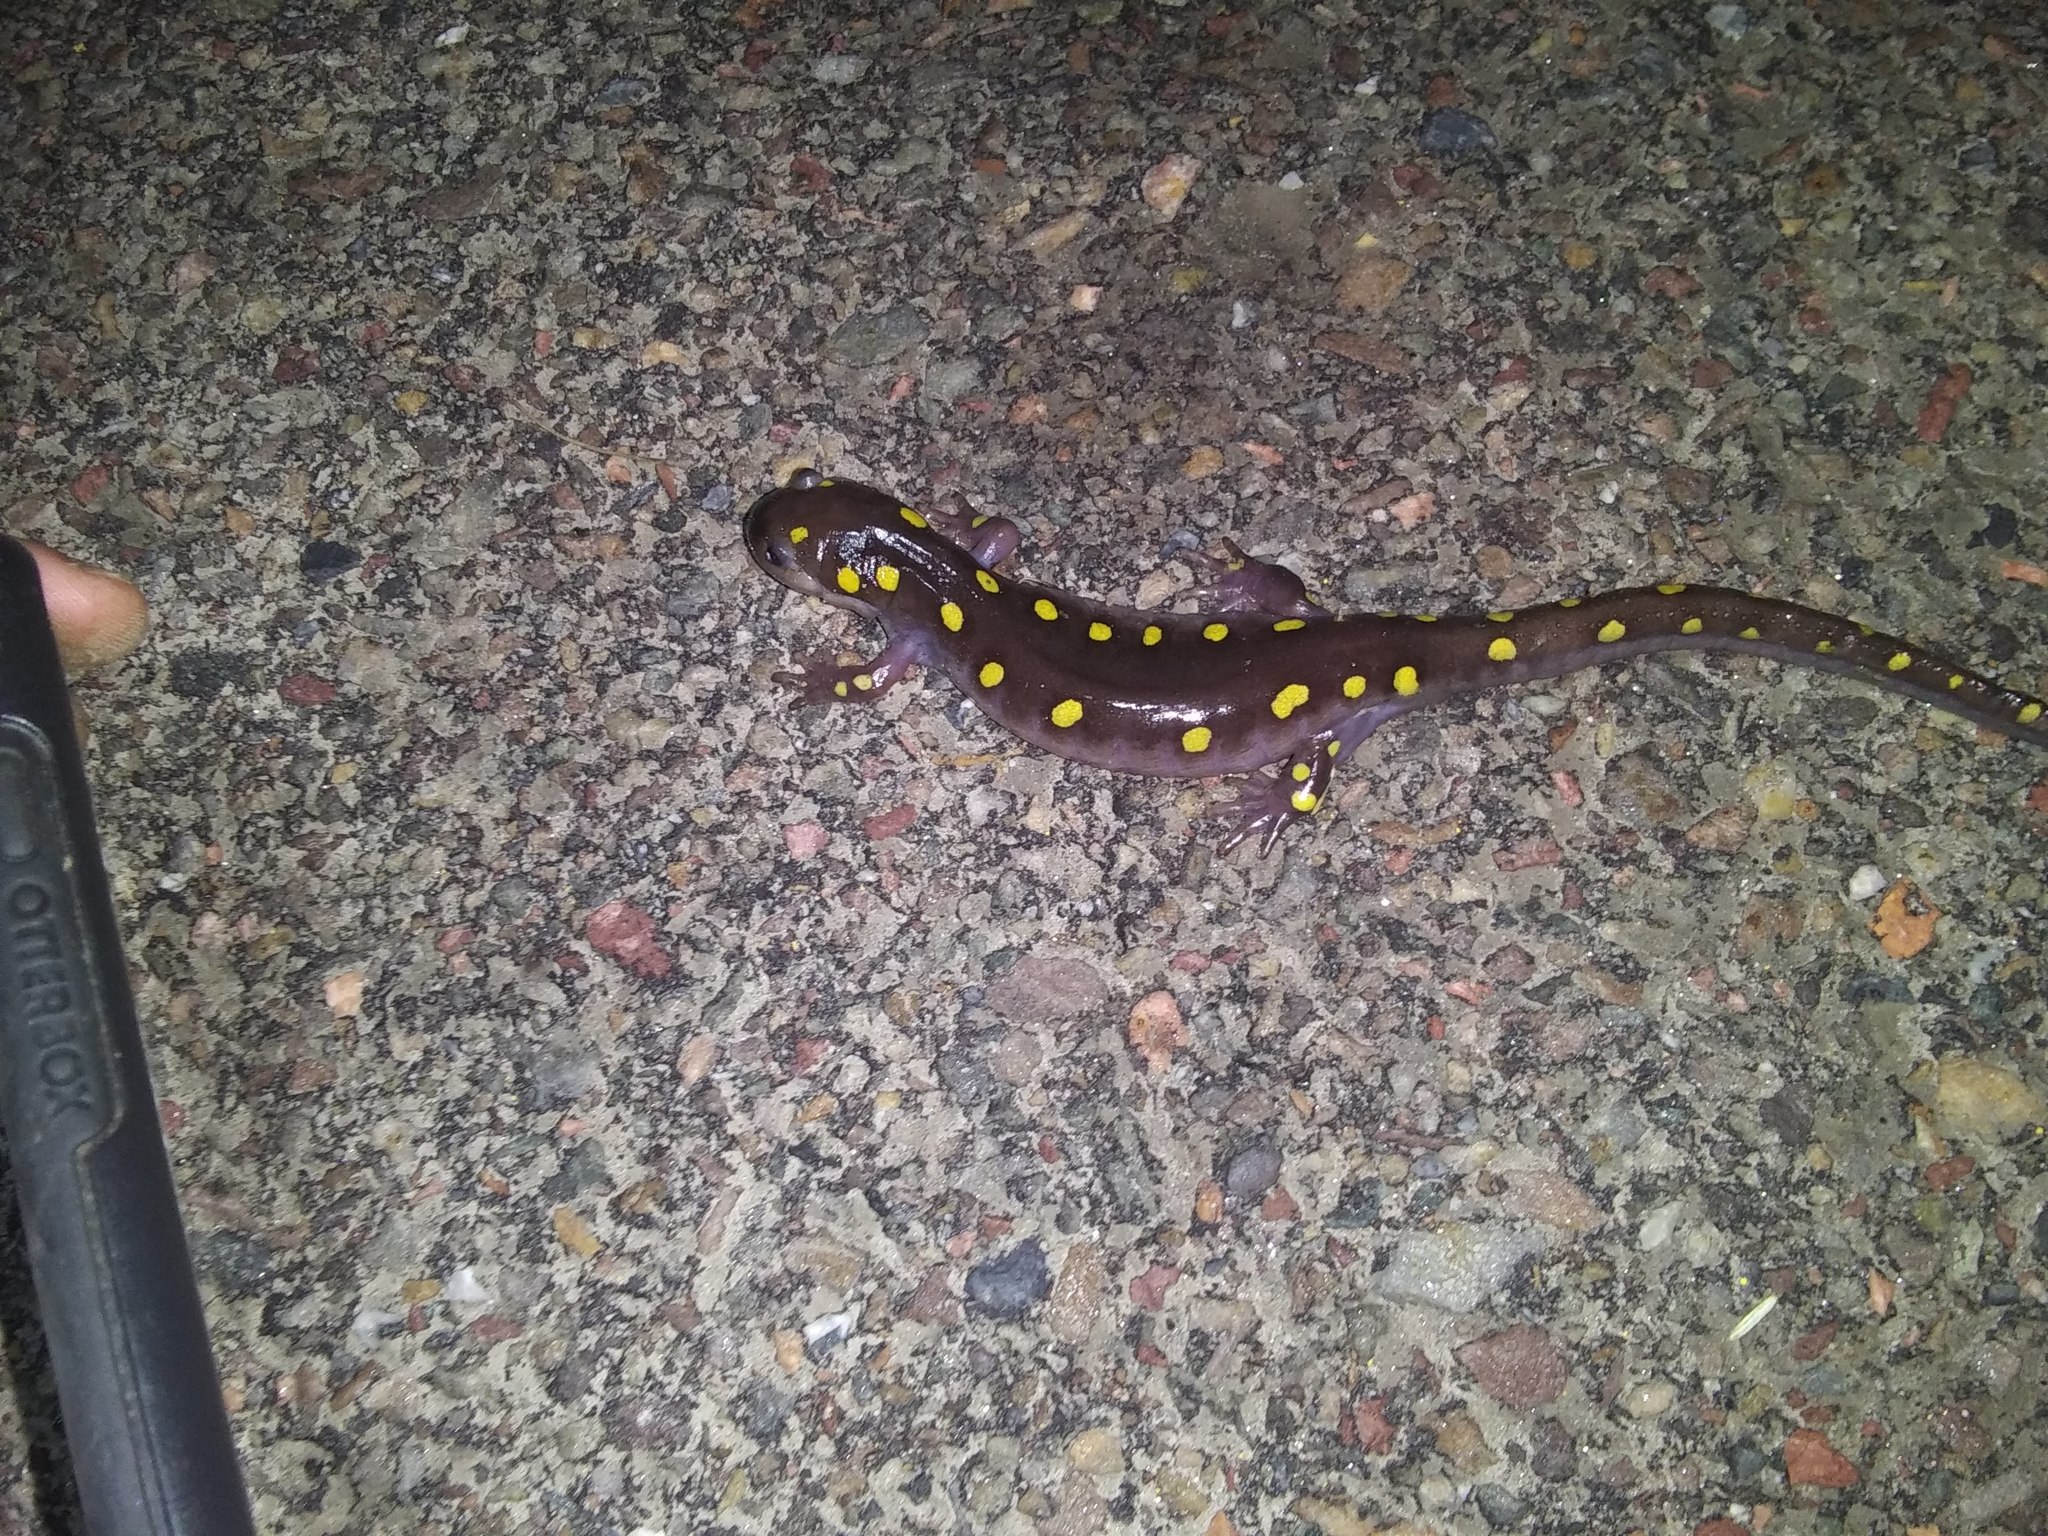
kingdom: Animalia
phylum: Chordata
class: Amphibia
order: Caudata
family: Ambystomatidae
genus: Ambystoma
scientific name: Ambystoma maculatum
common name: Spotted salamander
